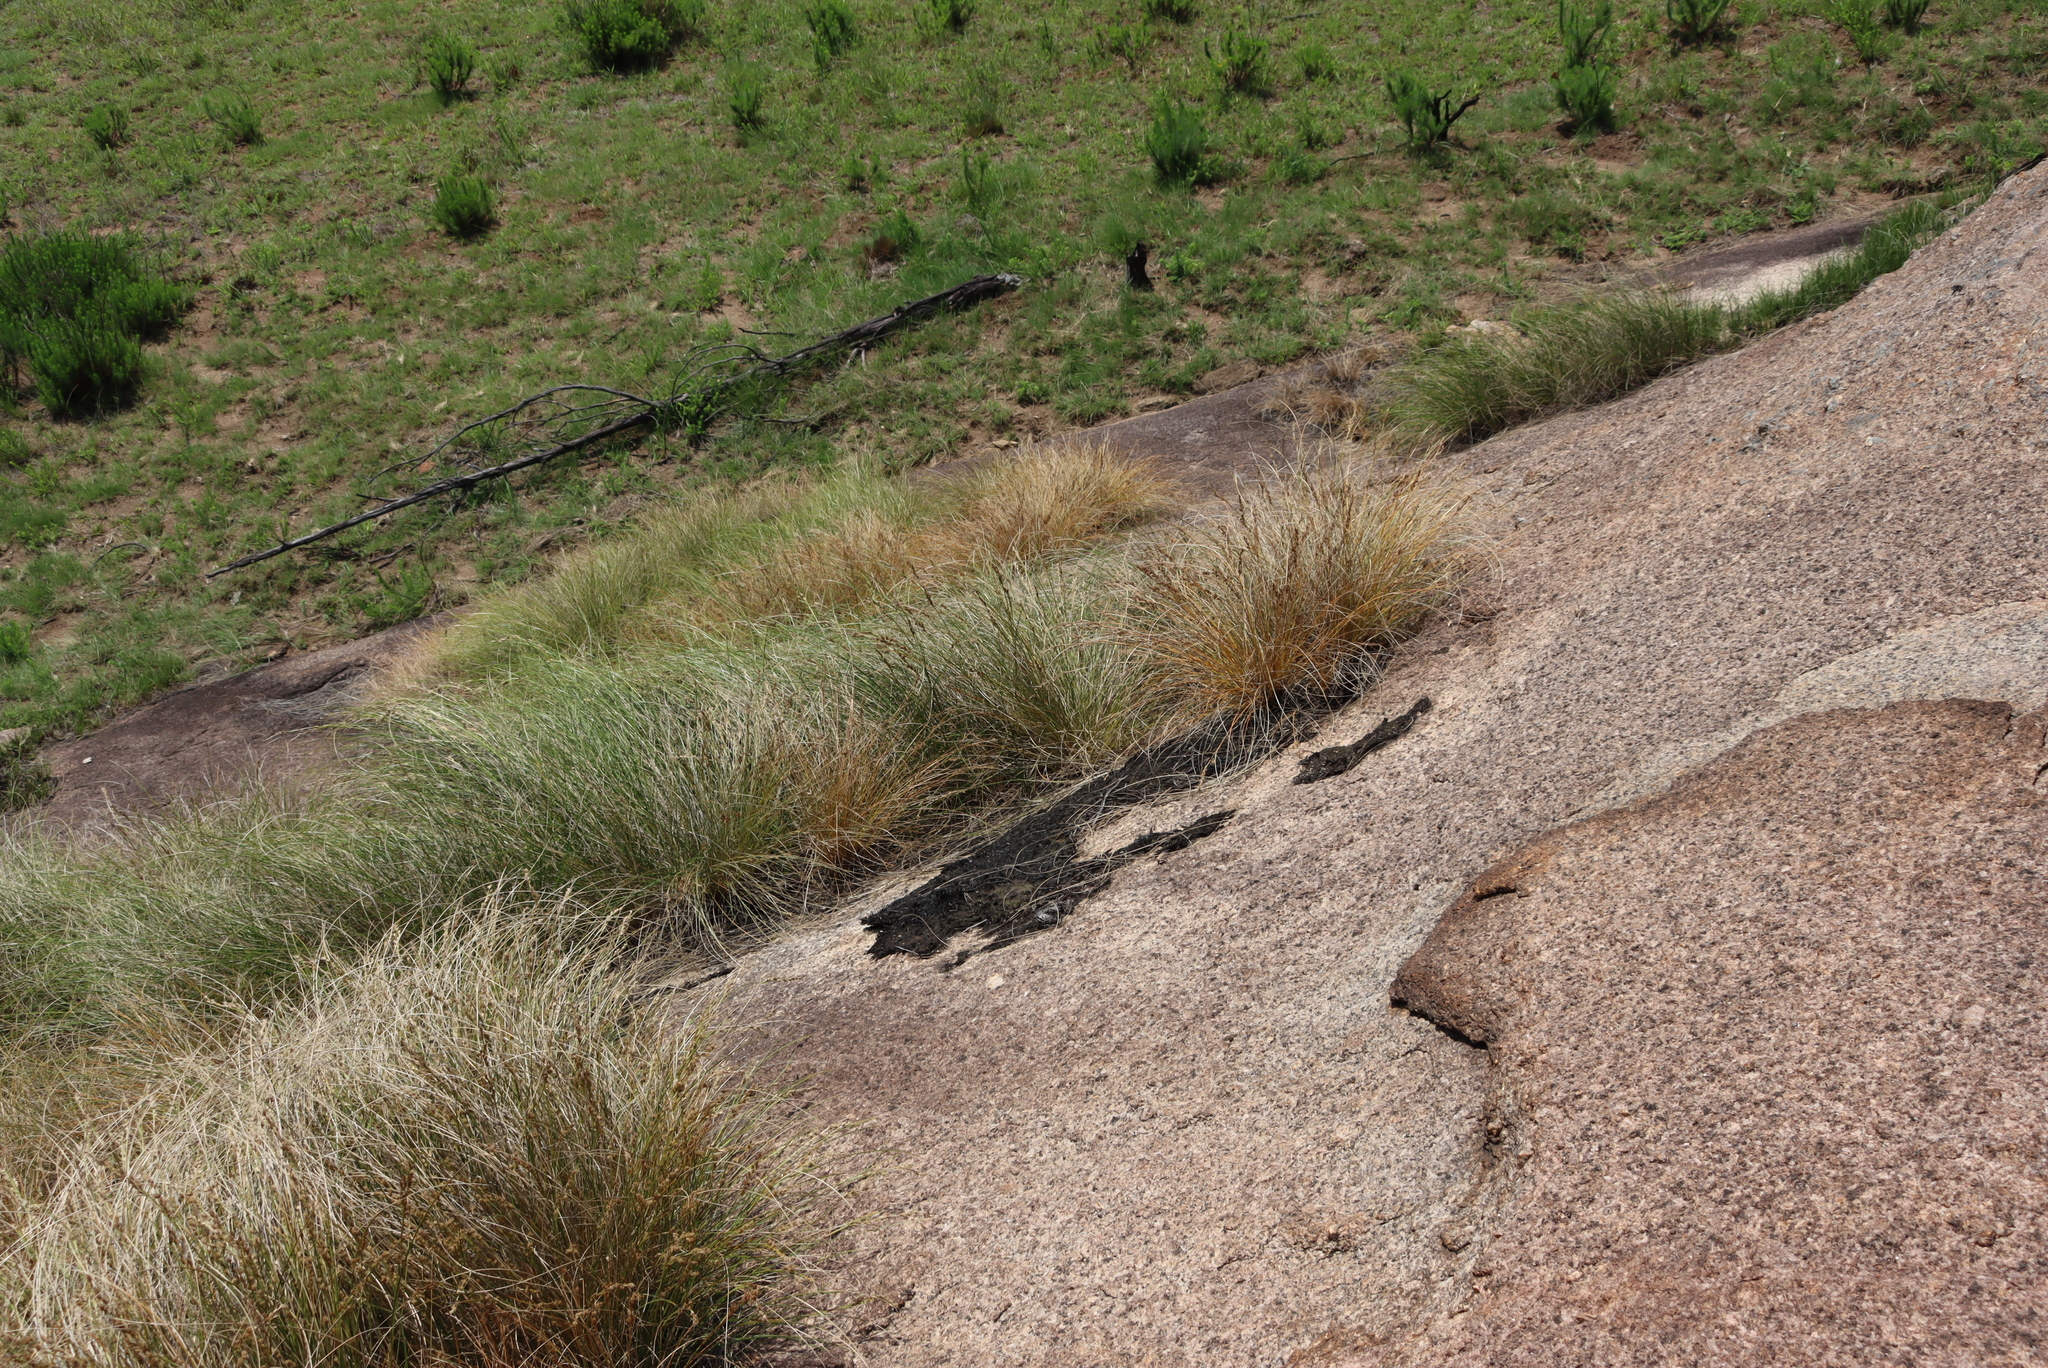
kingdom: Plantae
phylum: Tracheophyta
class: Liliopsida
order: Poales
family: Cyperaceae
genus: Coleochloa
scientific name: Coleochloa setifera
